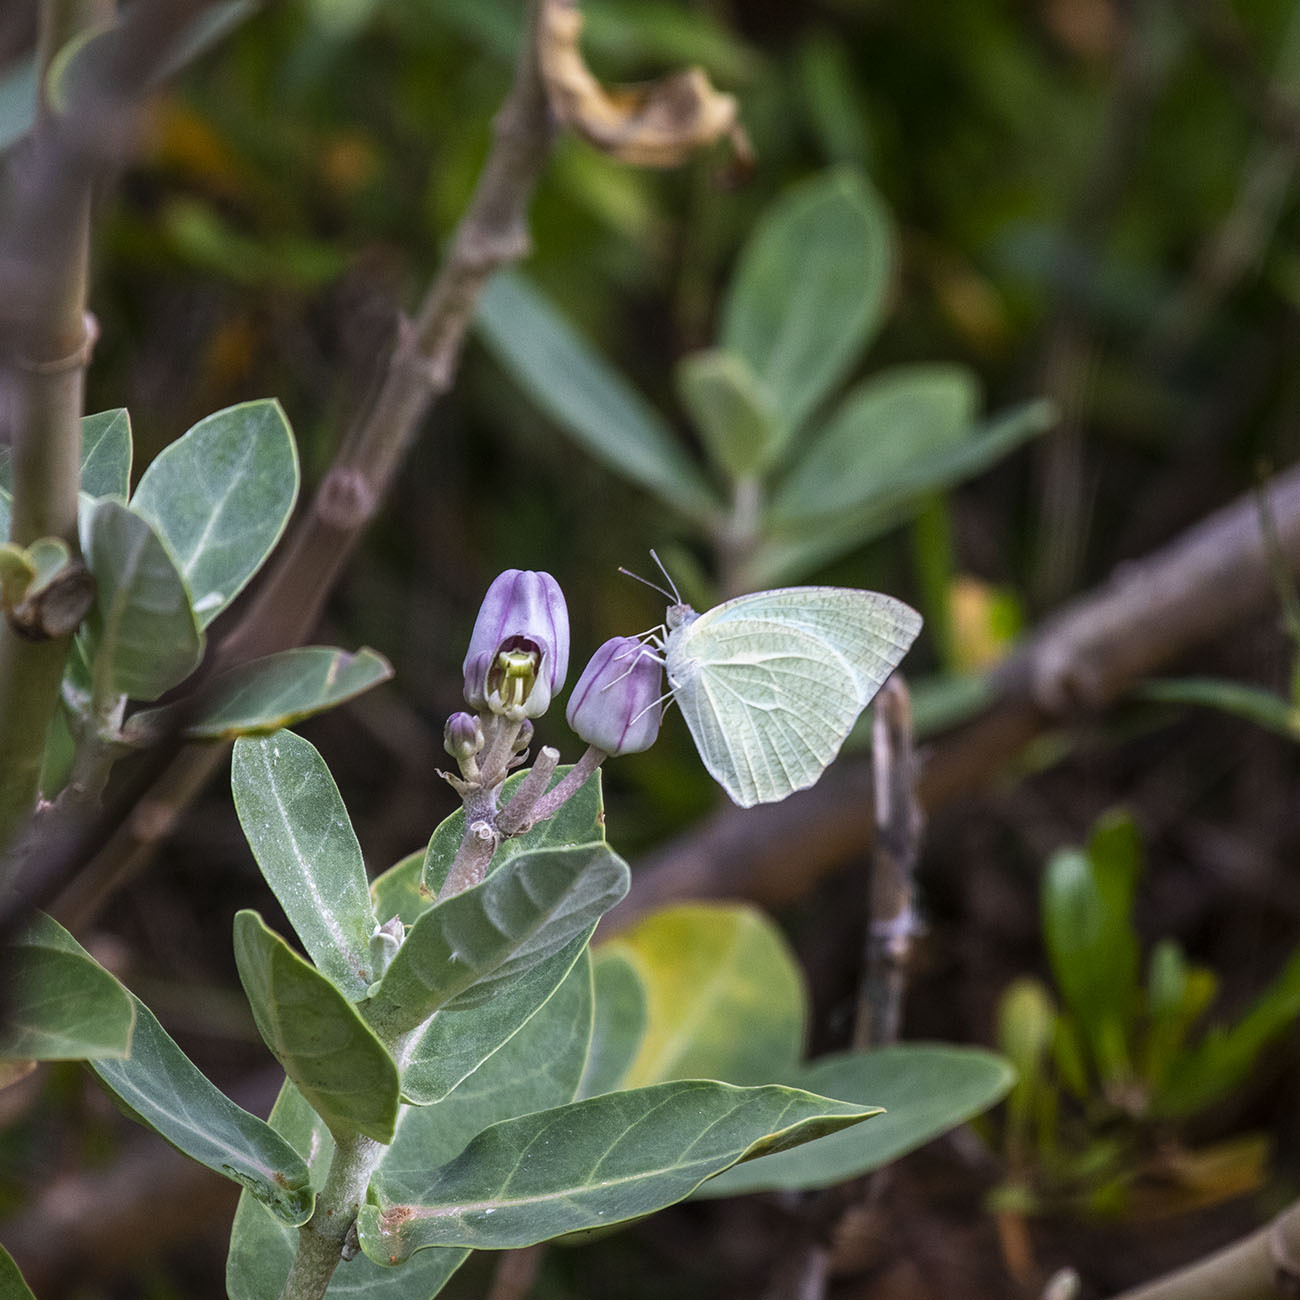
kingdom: Animalia
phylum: Arthropoda
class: Insecta
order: Lepidoptera
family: Pieridae
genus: Catopsilia
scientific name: Catopsilia pyranthe
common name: Mottled emigrant
